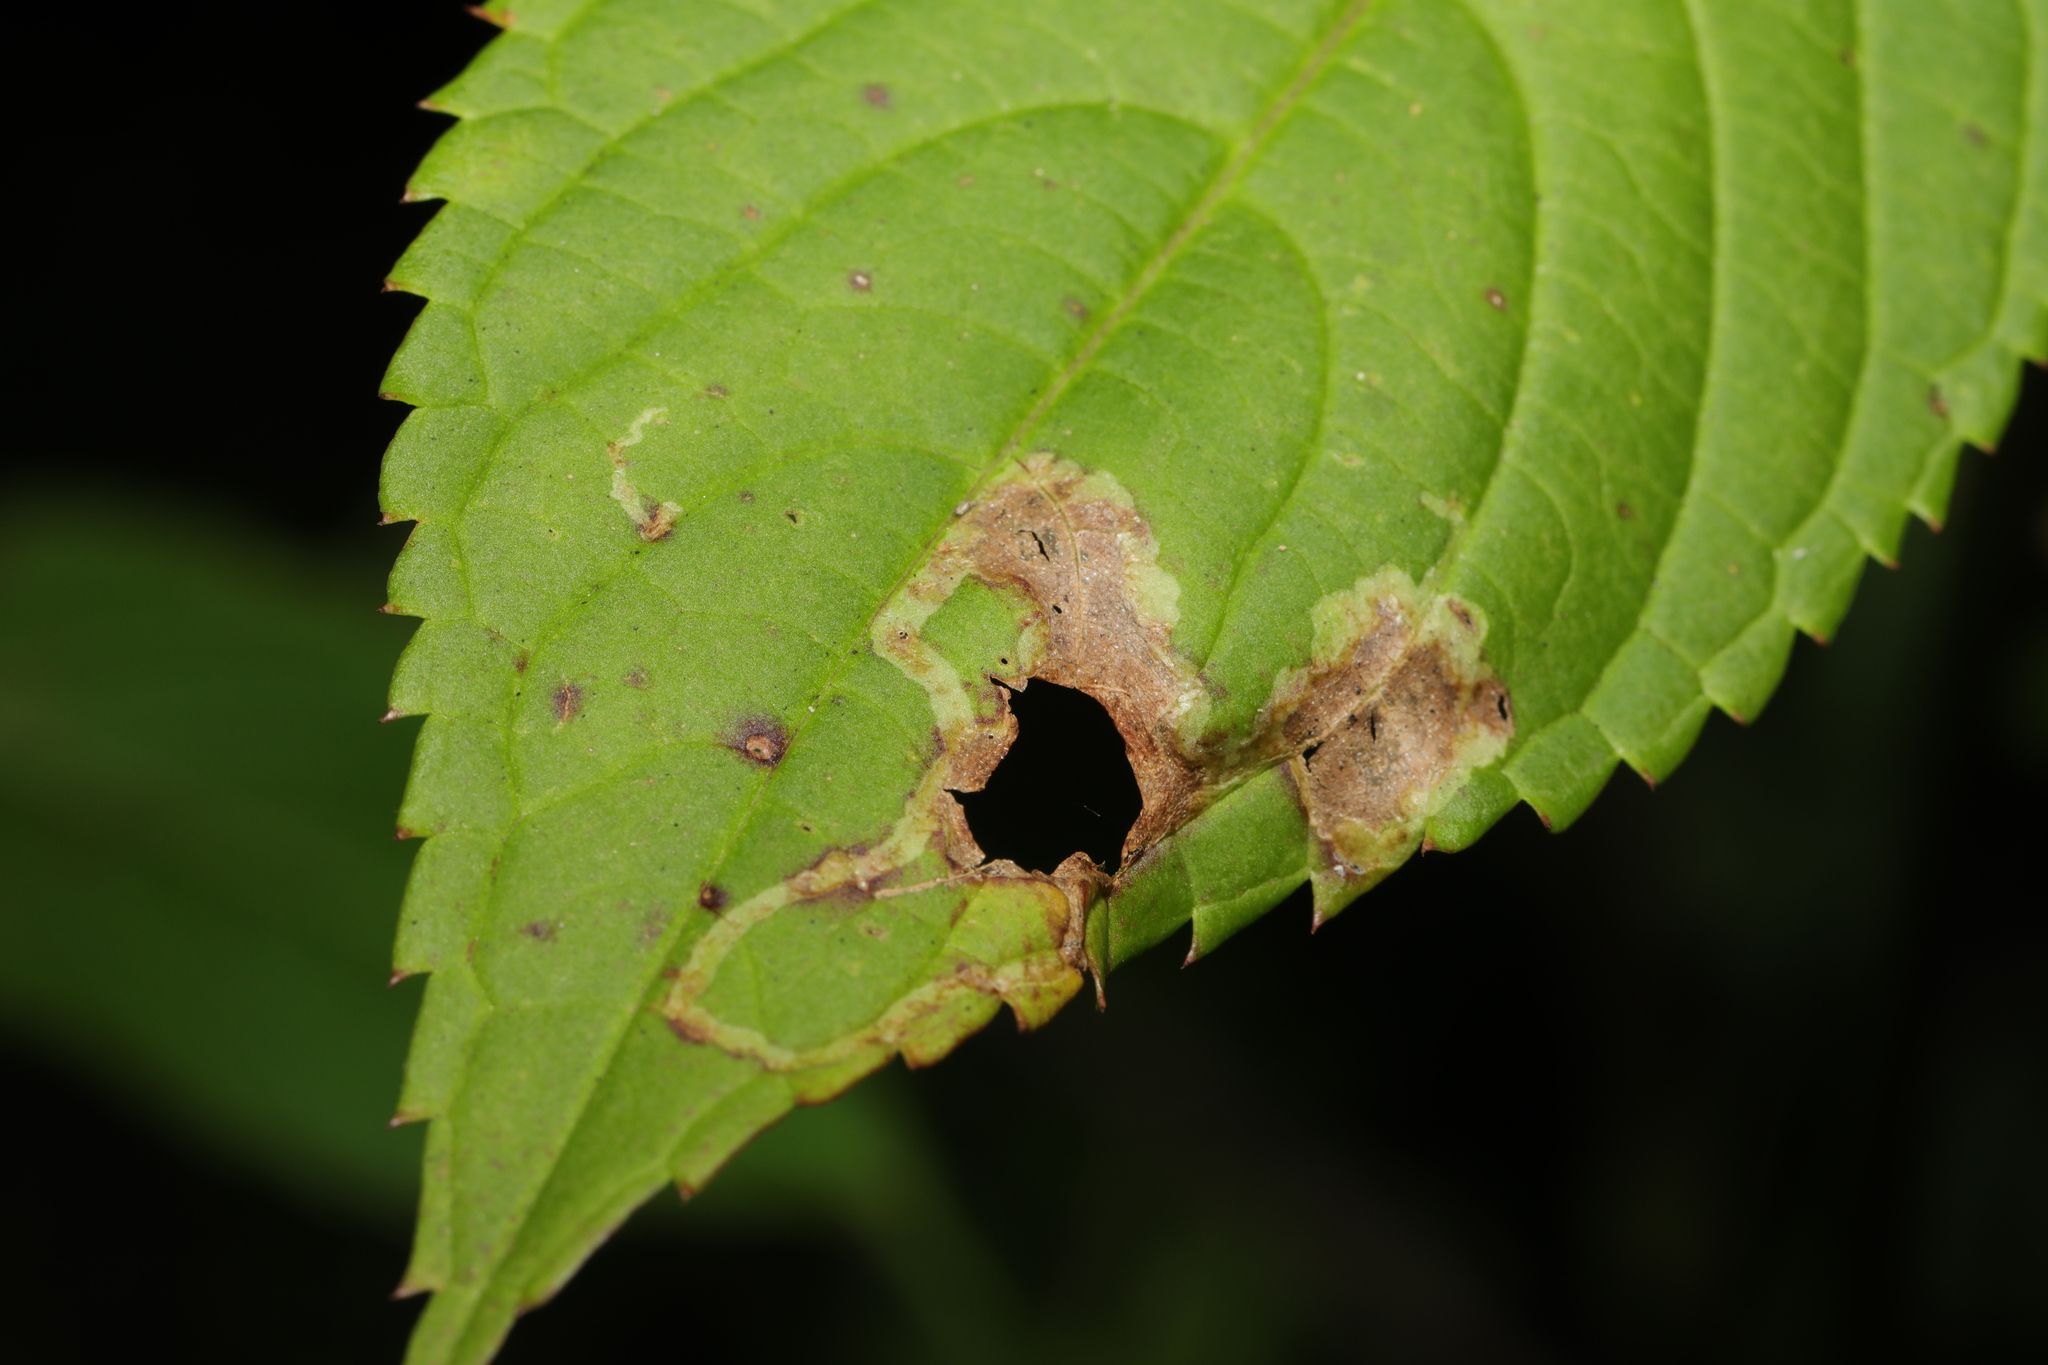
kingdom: Animalia
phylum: Arthropoda
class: Insecta
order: Diptera
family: Agromyzidae
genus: Phytoliriomyza
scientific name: Phytoliriomyza melampyga
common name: Jewelweed leaf-miner fly
